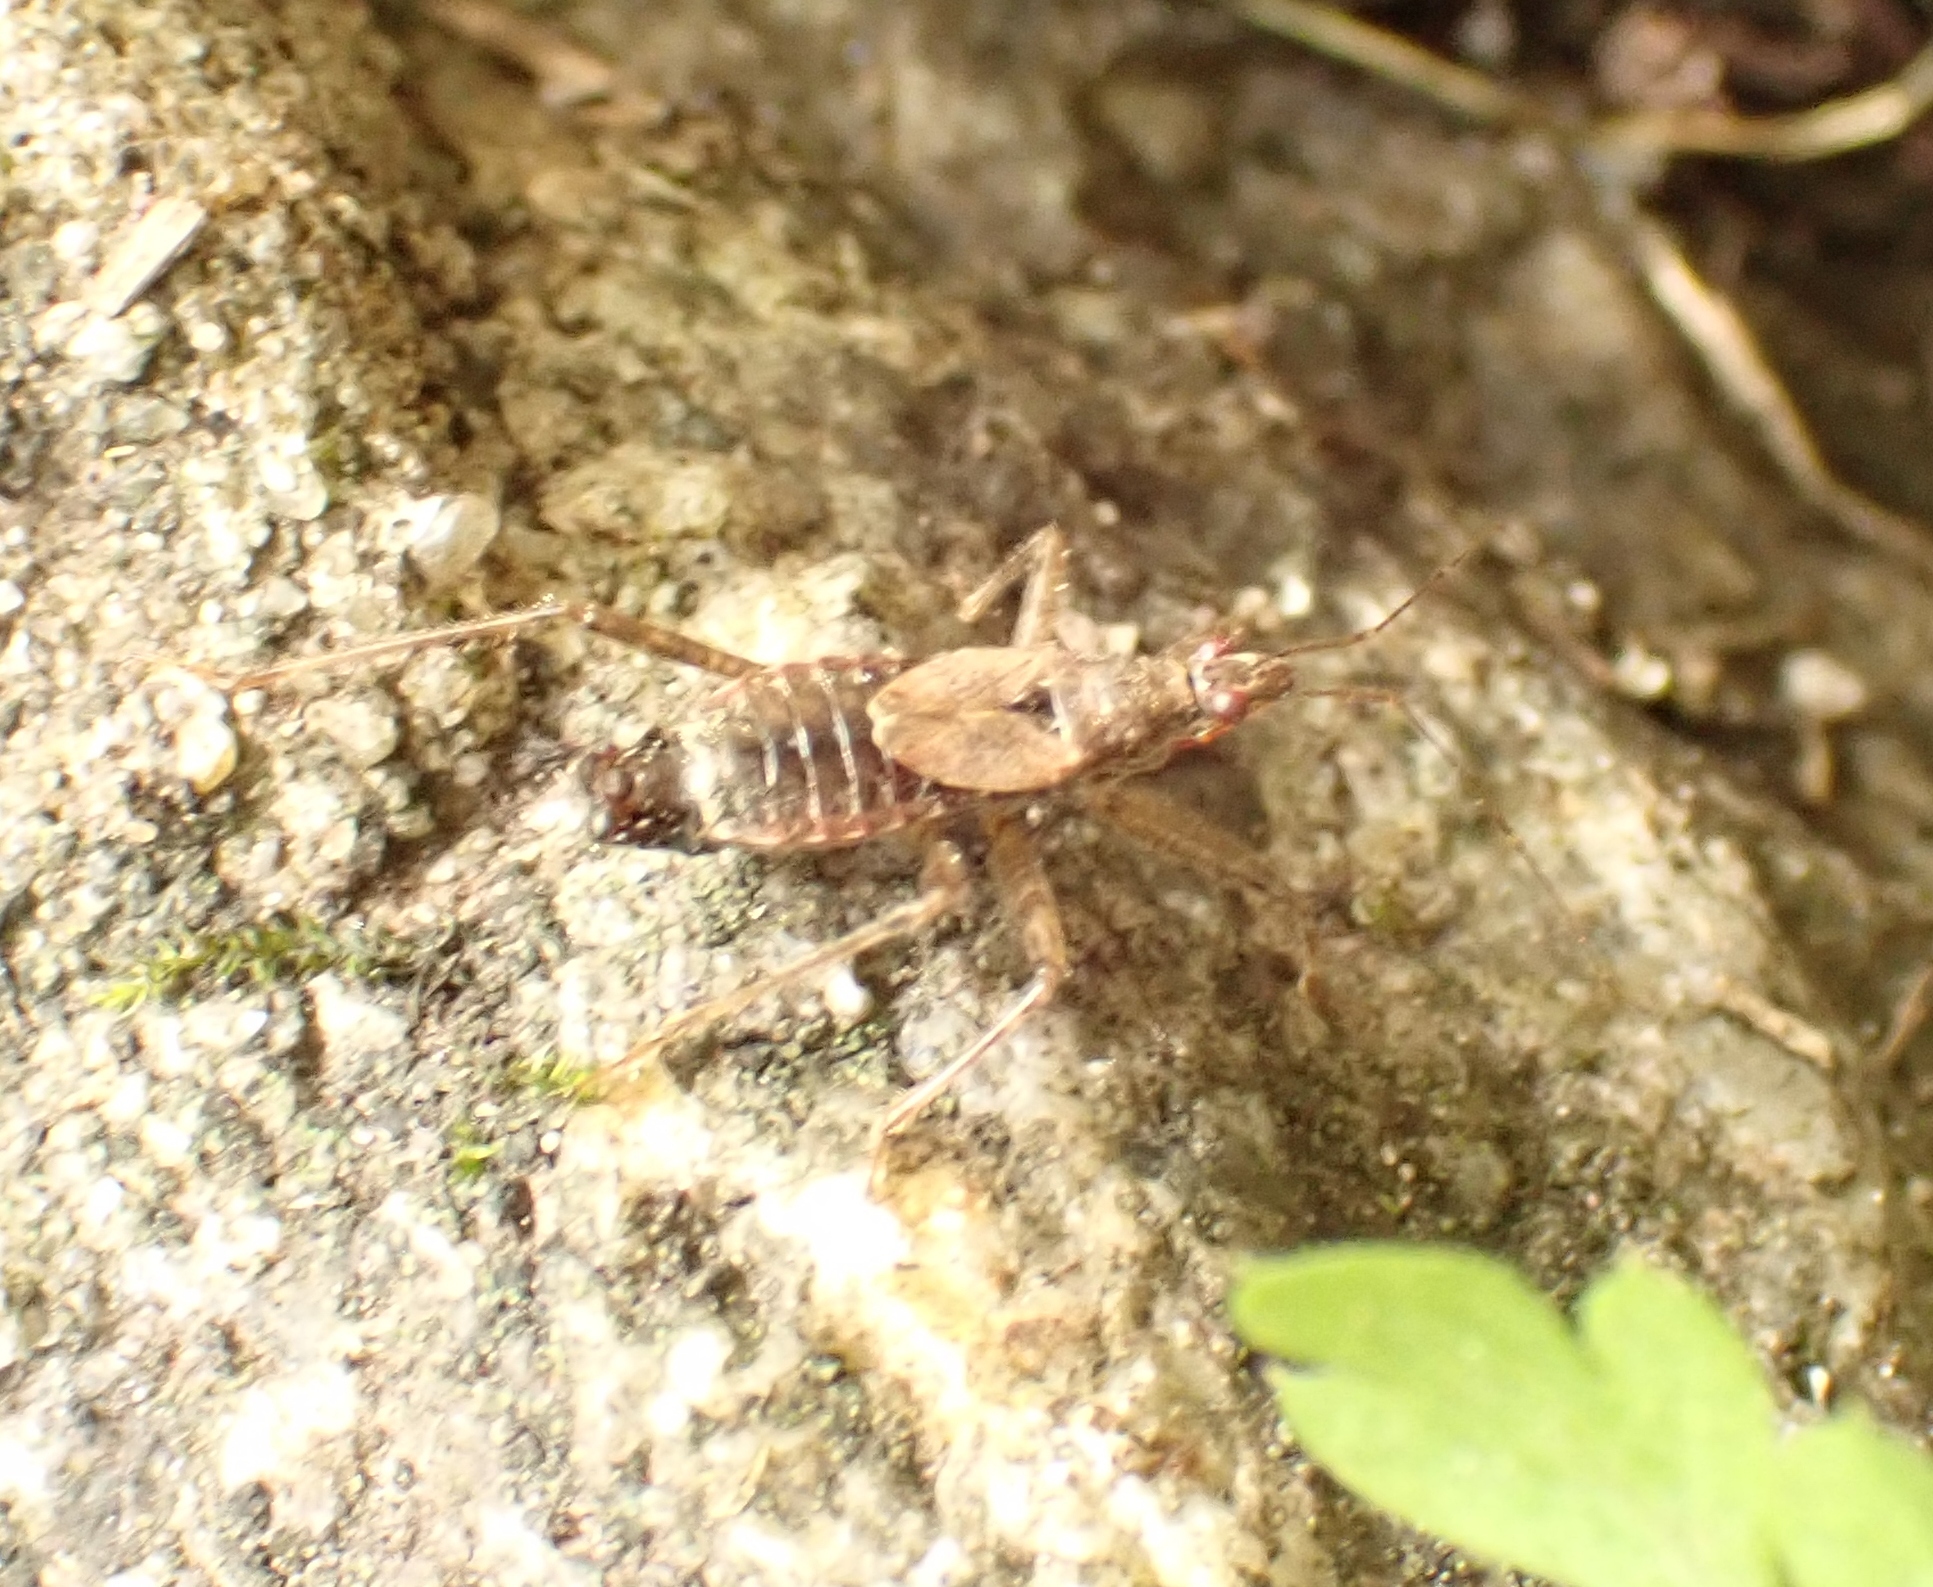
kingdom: Animalia
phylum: Arthropoda
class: Insecta
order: Hemiptera
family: Nabidae
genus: Himacerus
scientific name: Himacerus apterus
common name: Tree damsel bug
